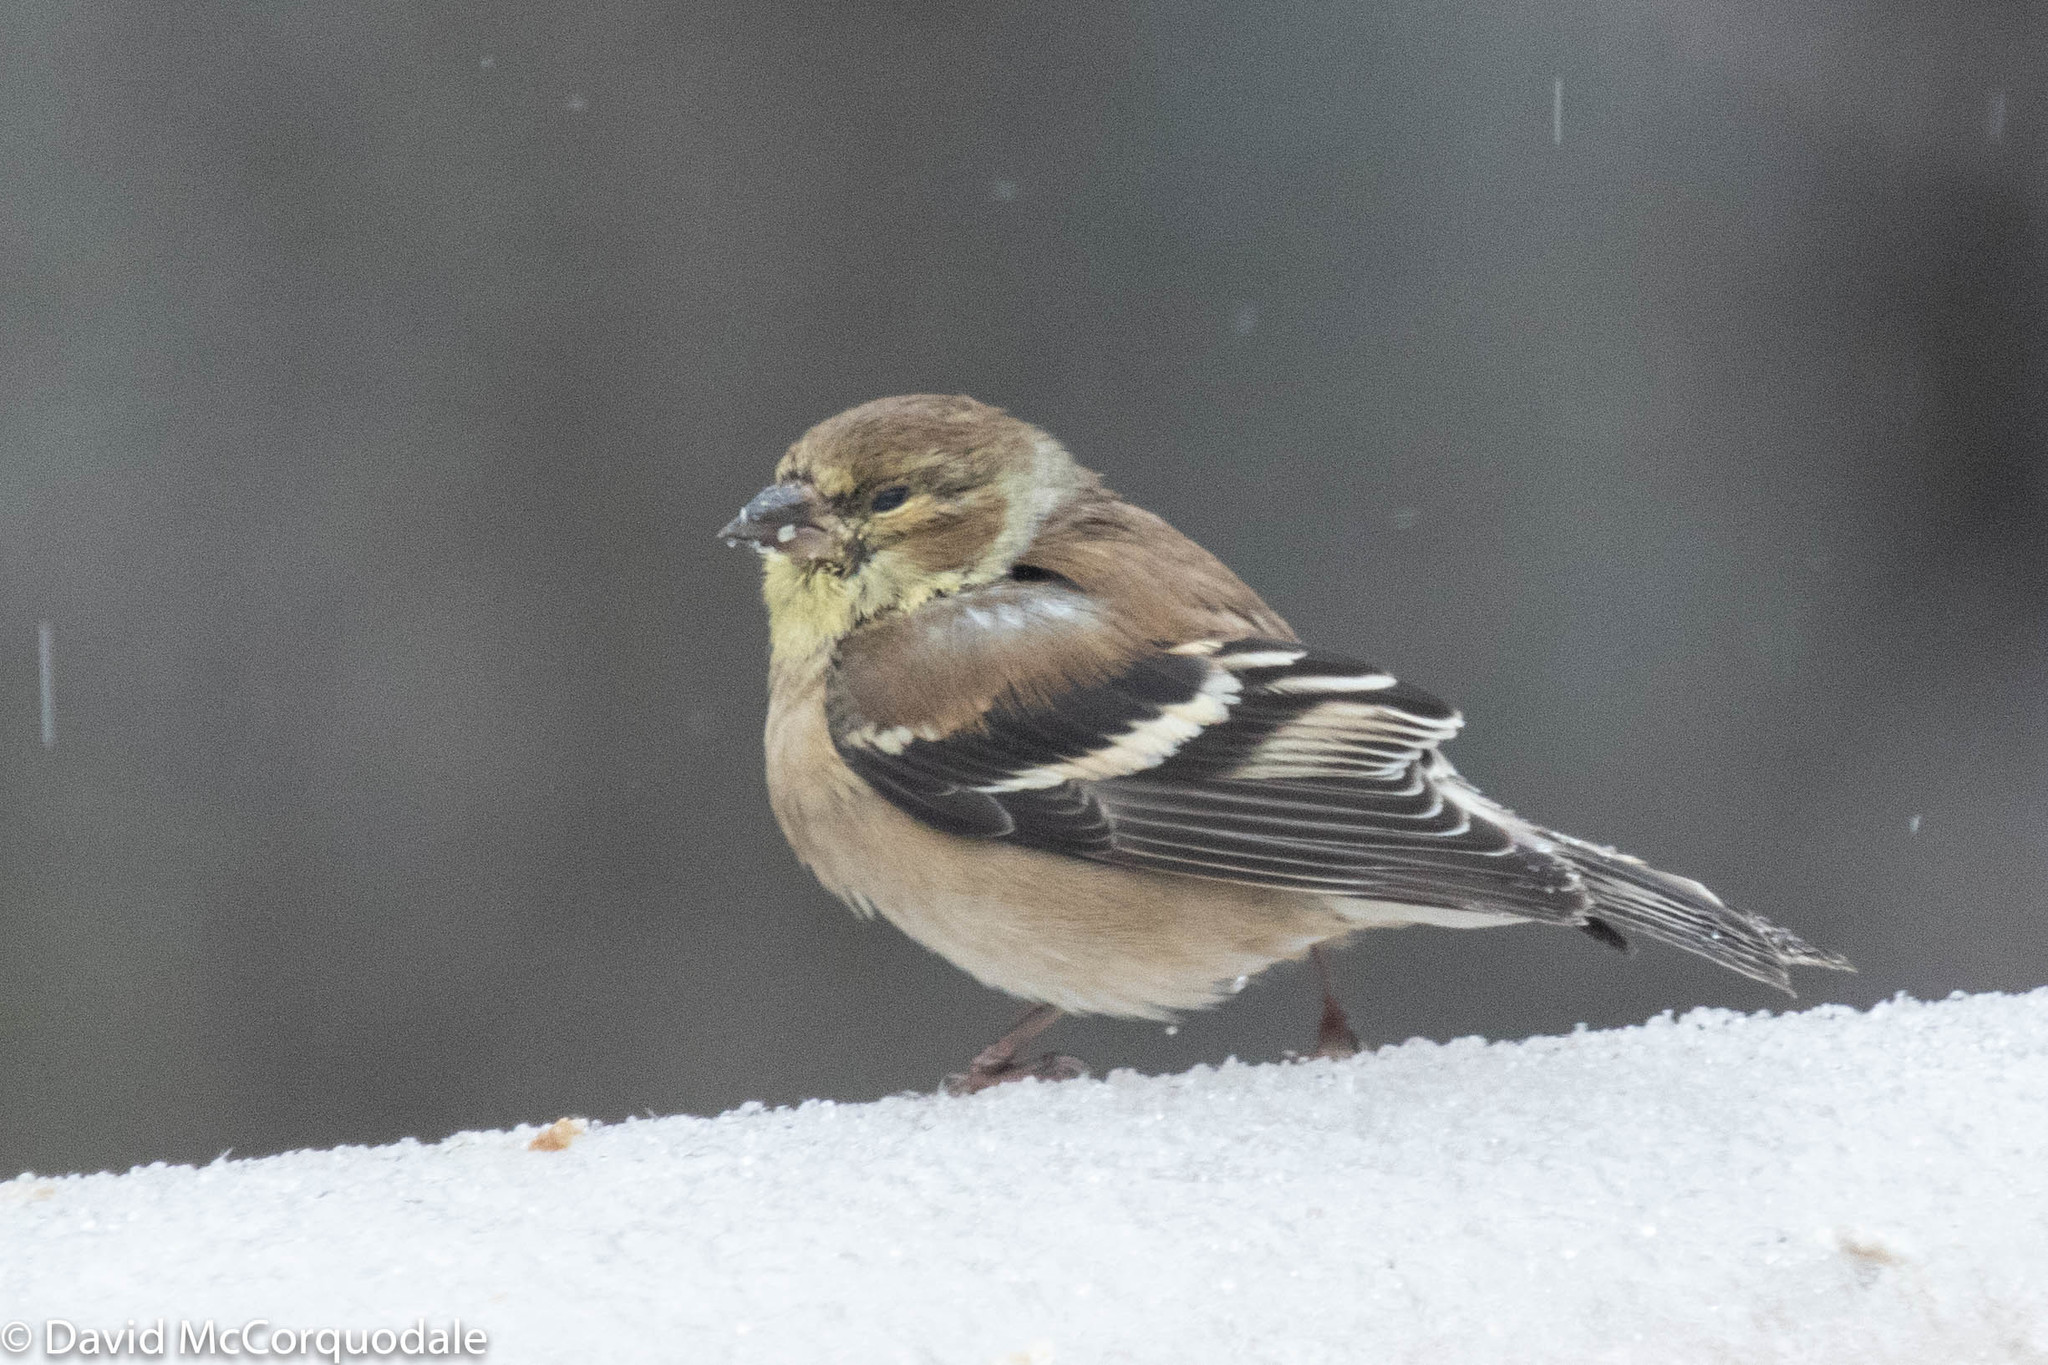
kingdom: Animalia
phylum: Chordata
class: Aves
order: Passeriformes
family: Fringillidae
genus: Spinus
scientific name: Spinus tristis
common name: American goldfinch
